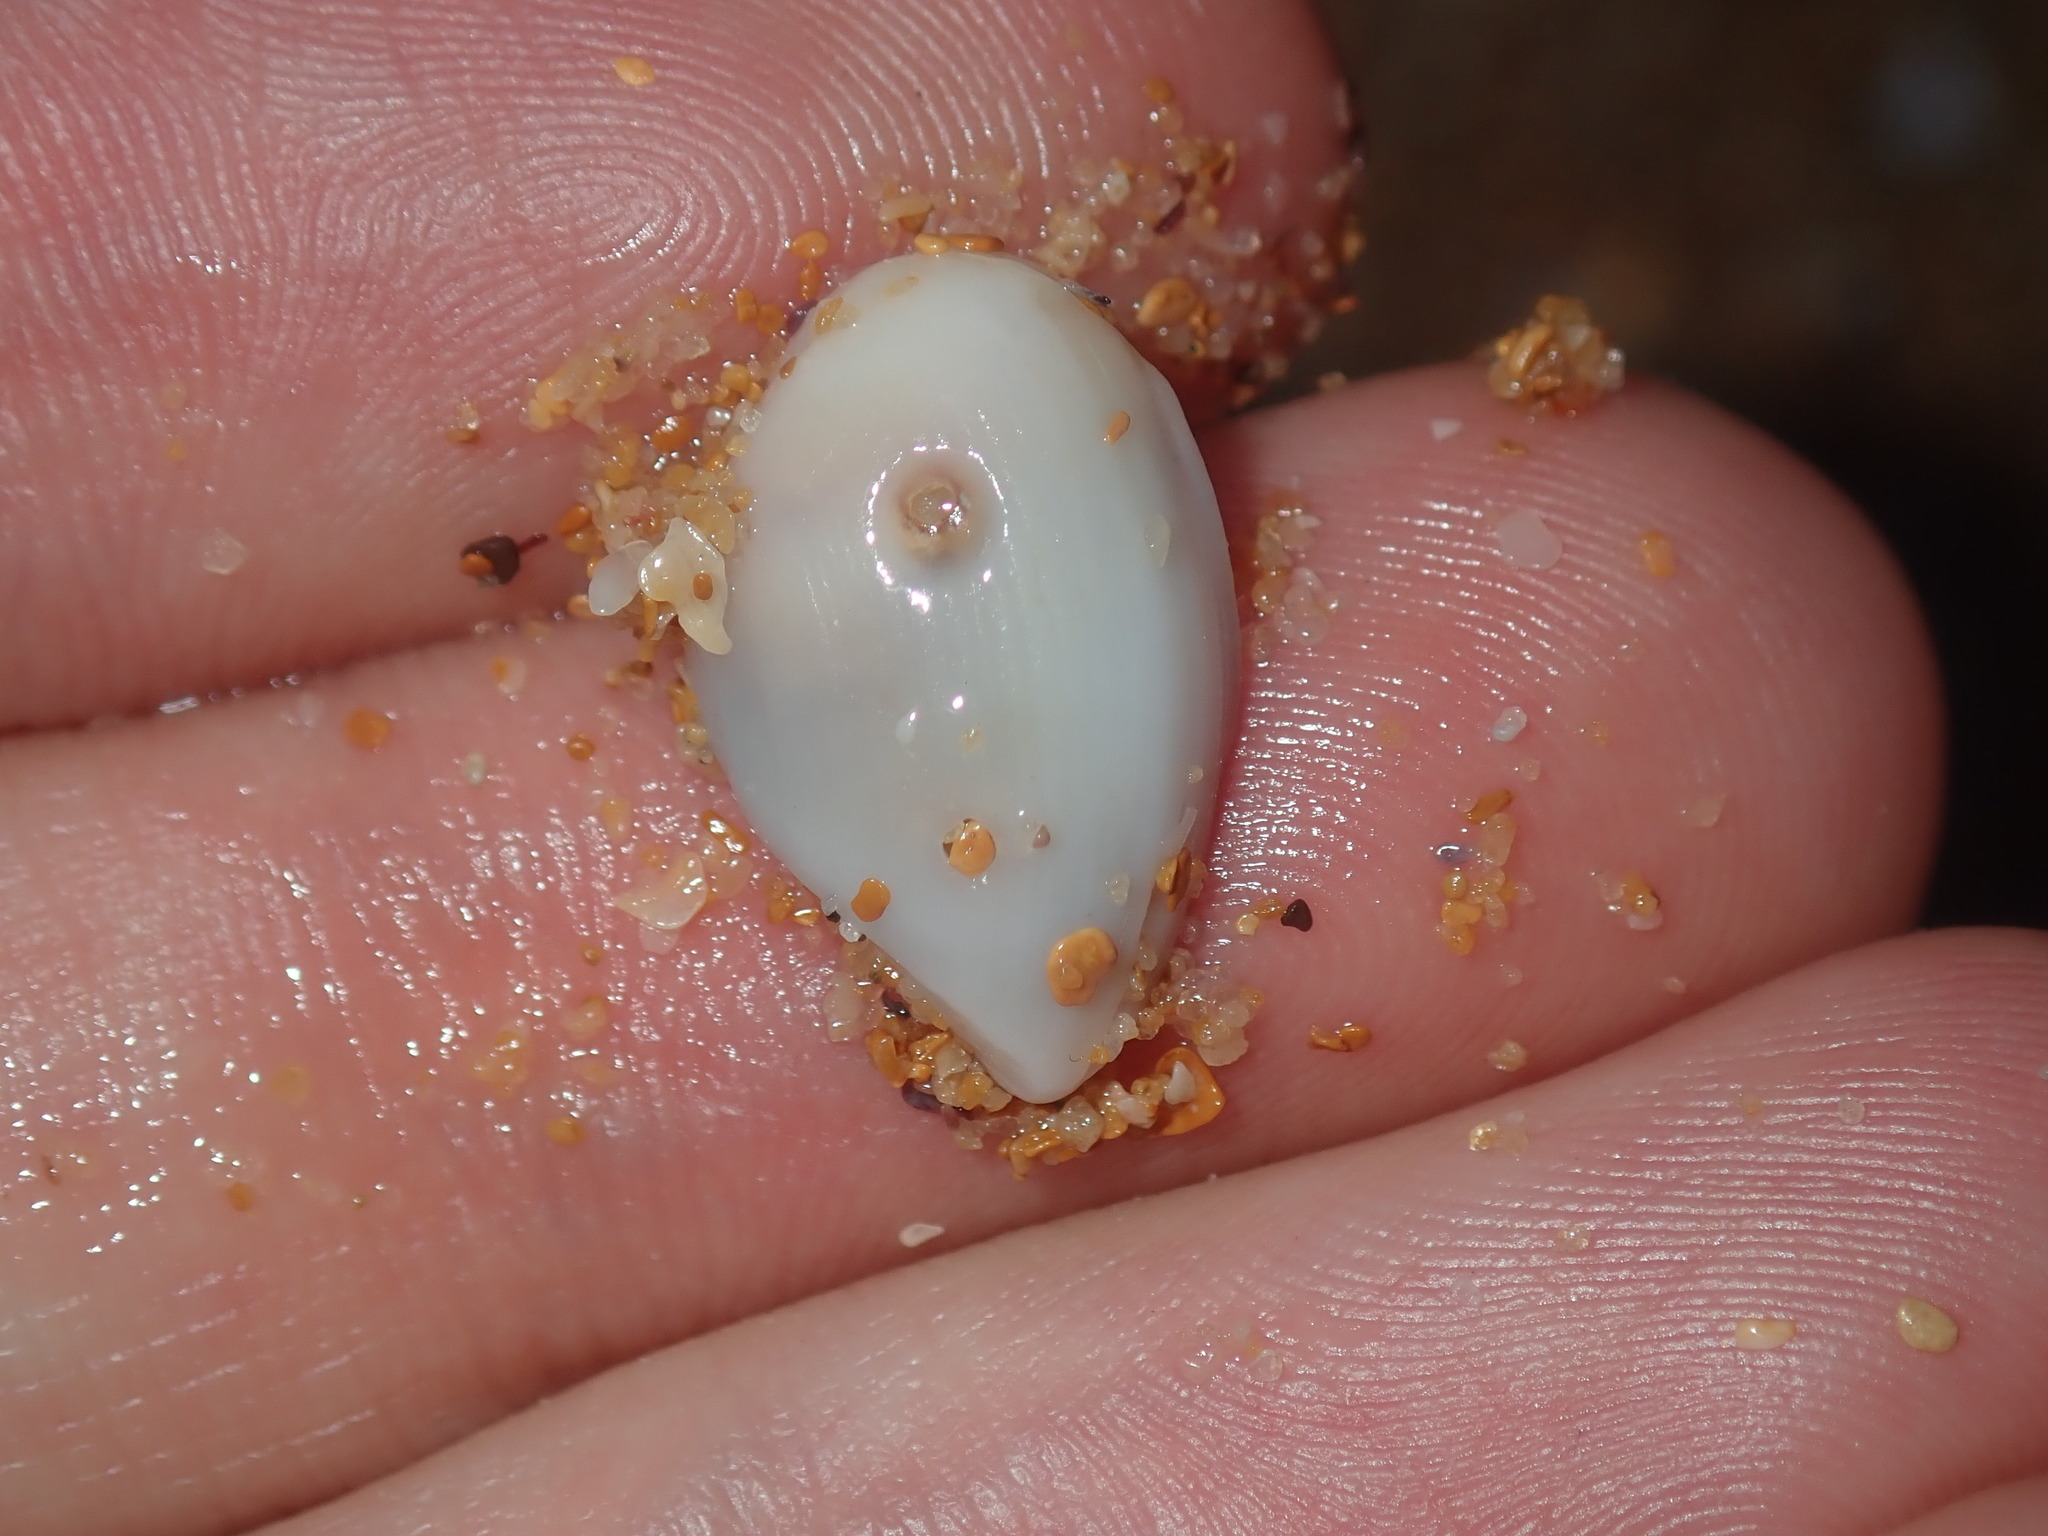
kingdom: Animalia
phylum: Mollusca
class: Bivalvia
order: Myida
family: Corbulidae
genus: Corbula
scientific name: Corbula smithiana
